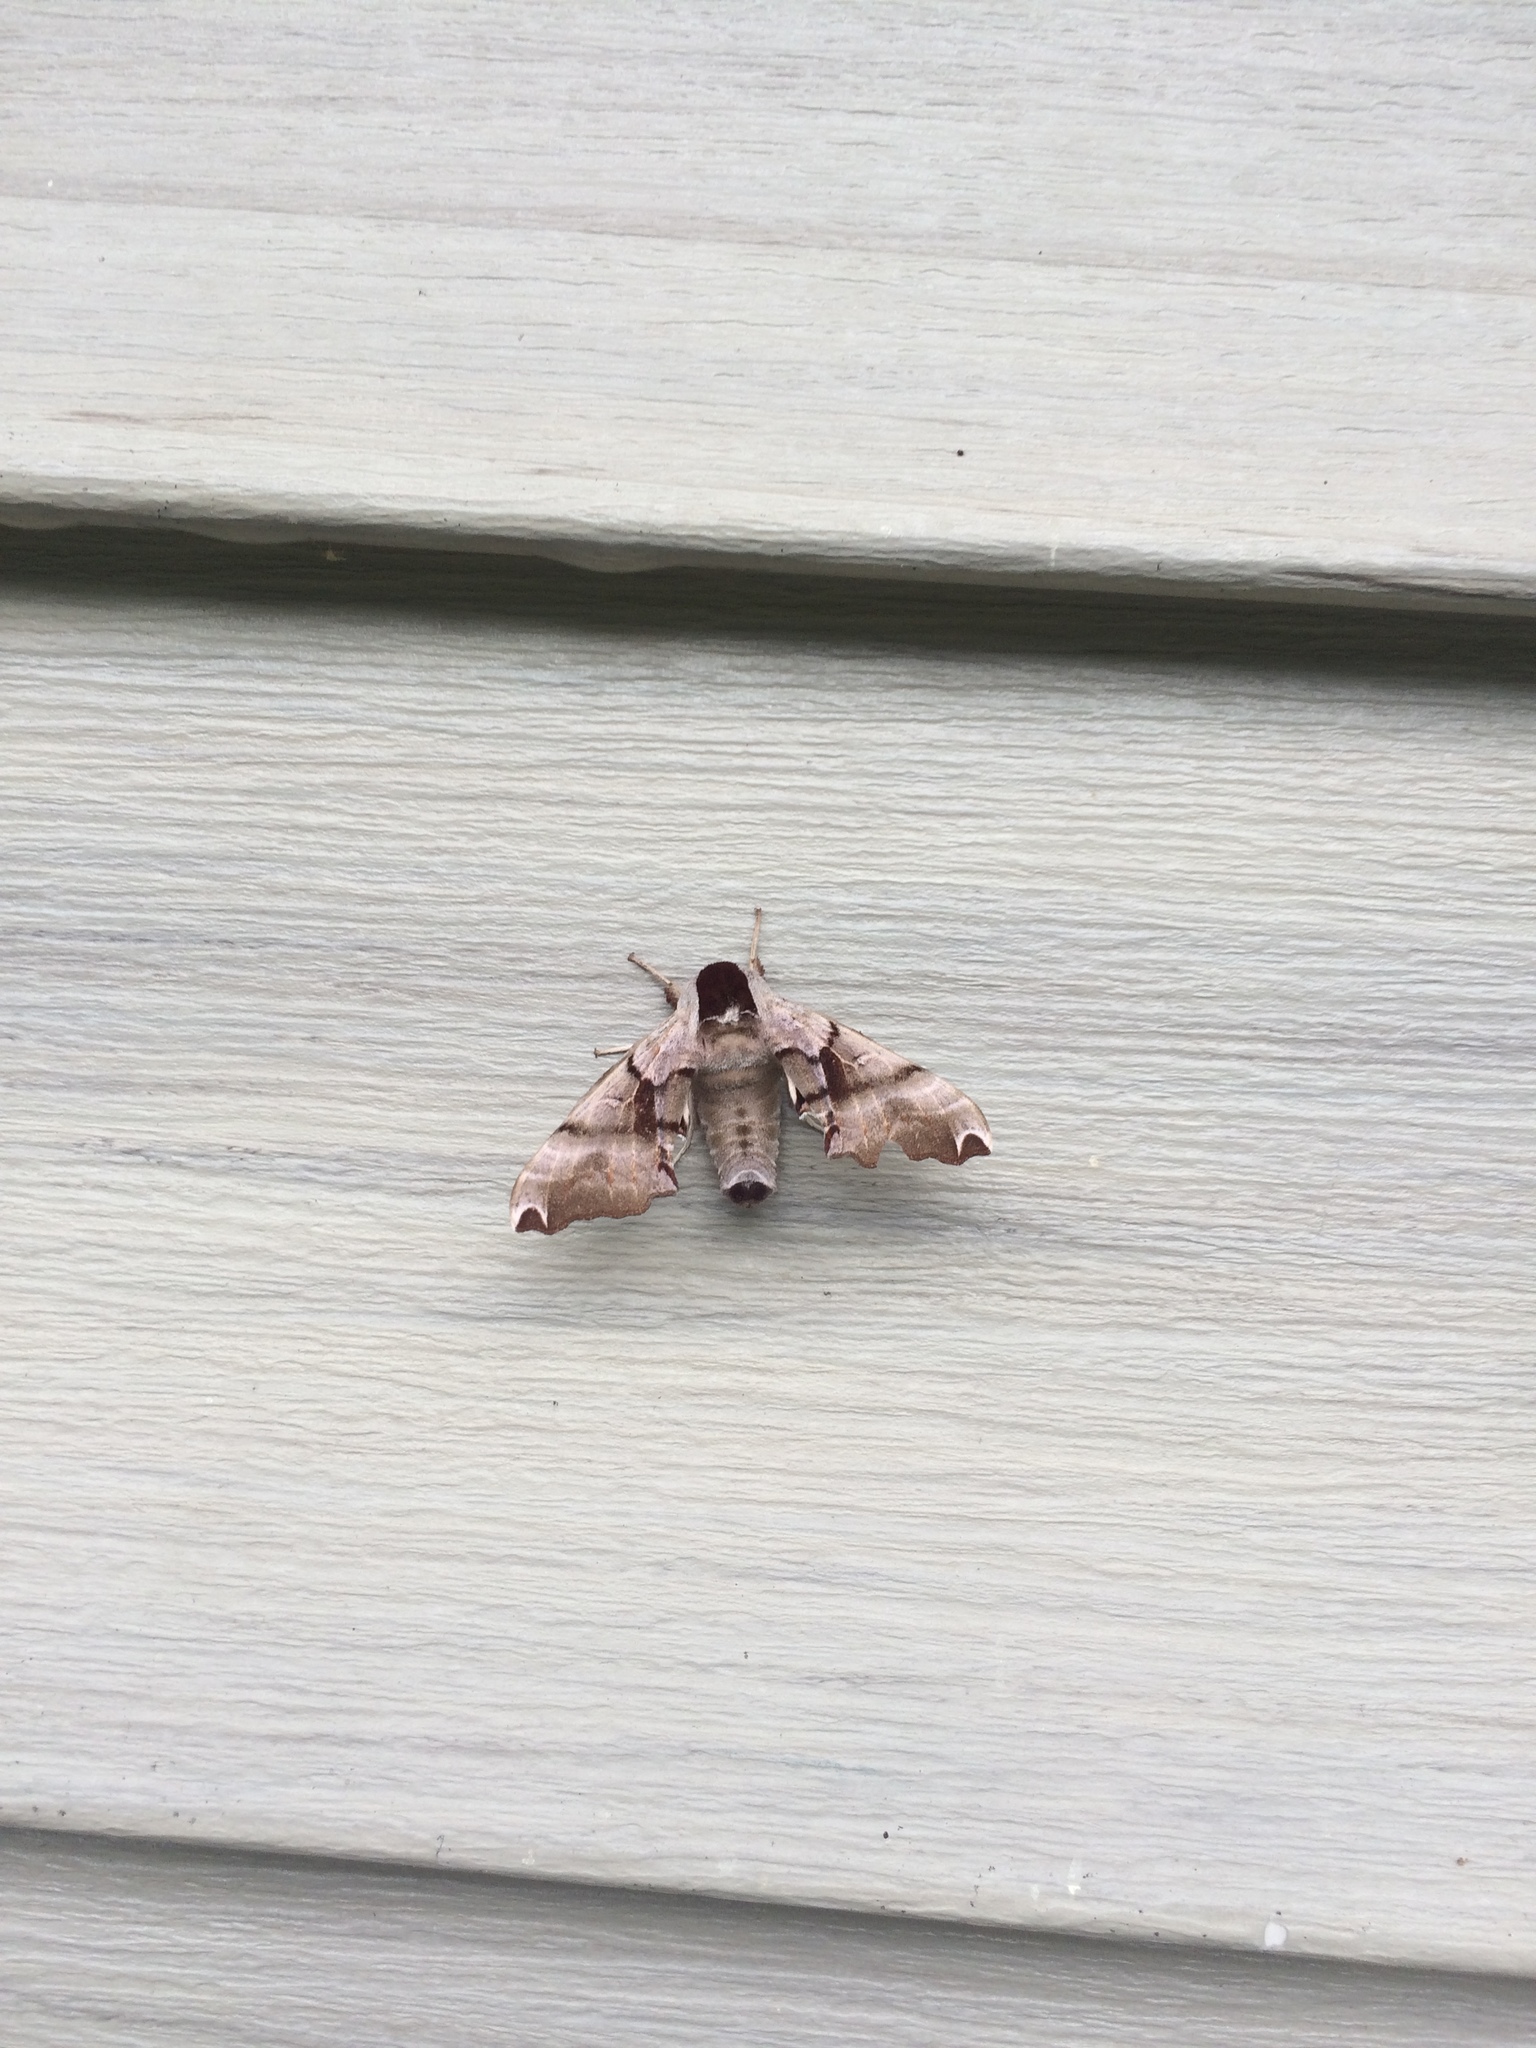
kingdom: Animalia
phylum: Arthropoda
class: Insecta
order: Lepidoptera
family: Sphingidae
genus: Smerinthus
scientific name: Smerinthus jamaicensis
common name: Twin spotted sphinx
